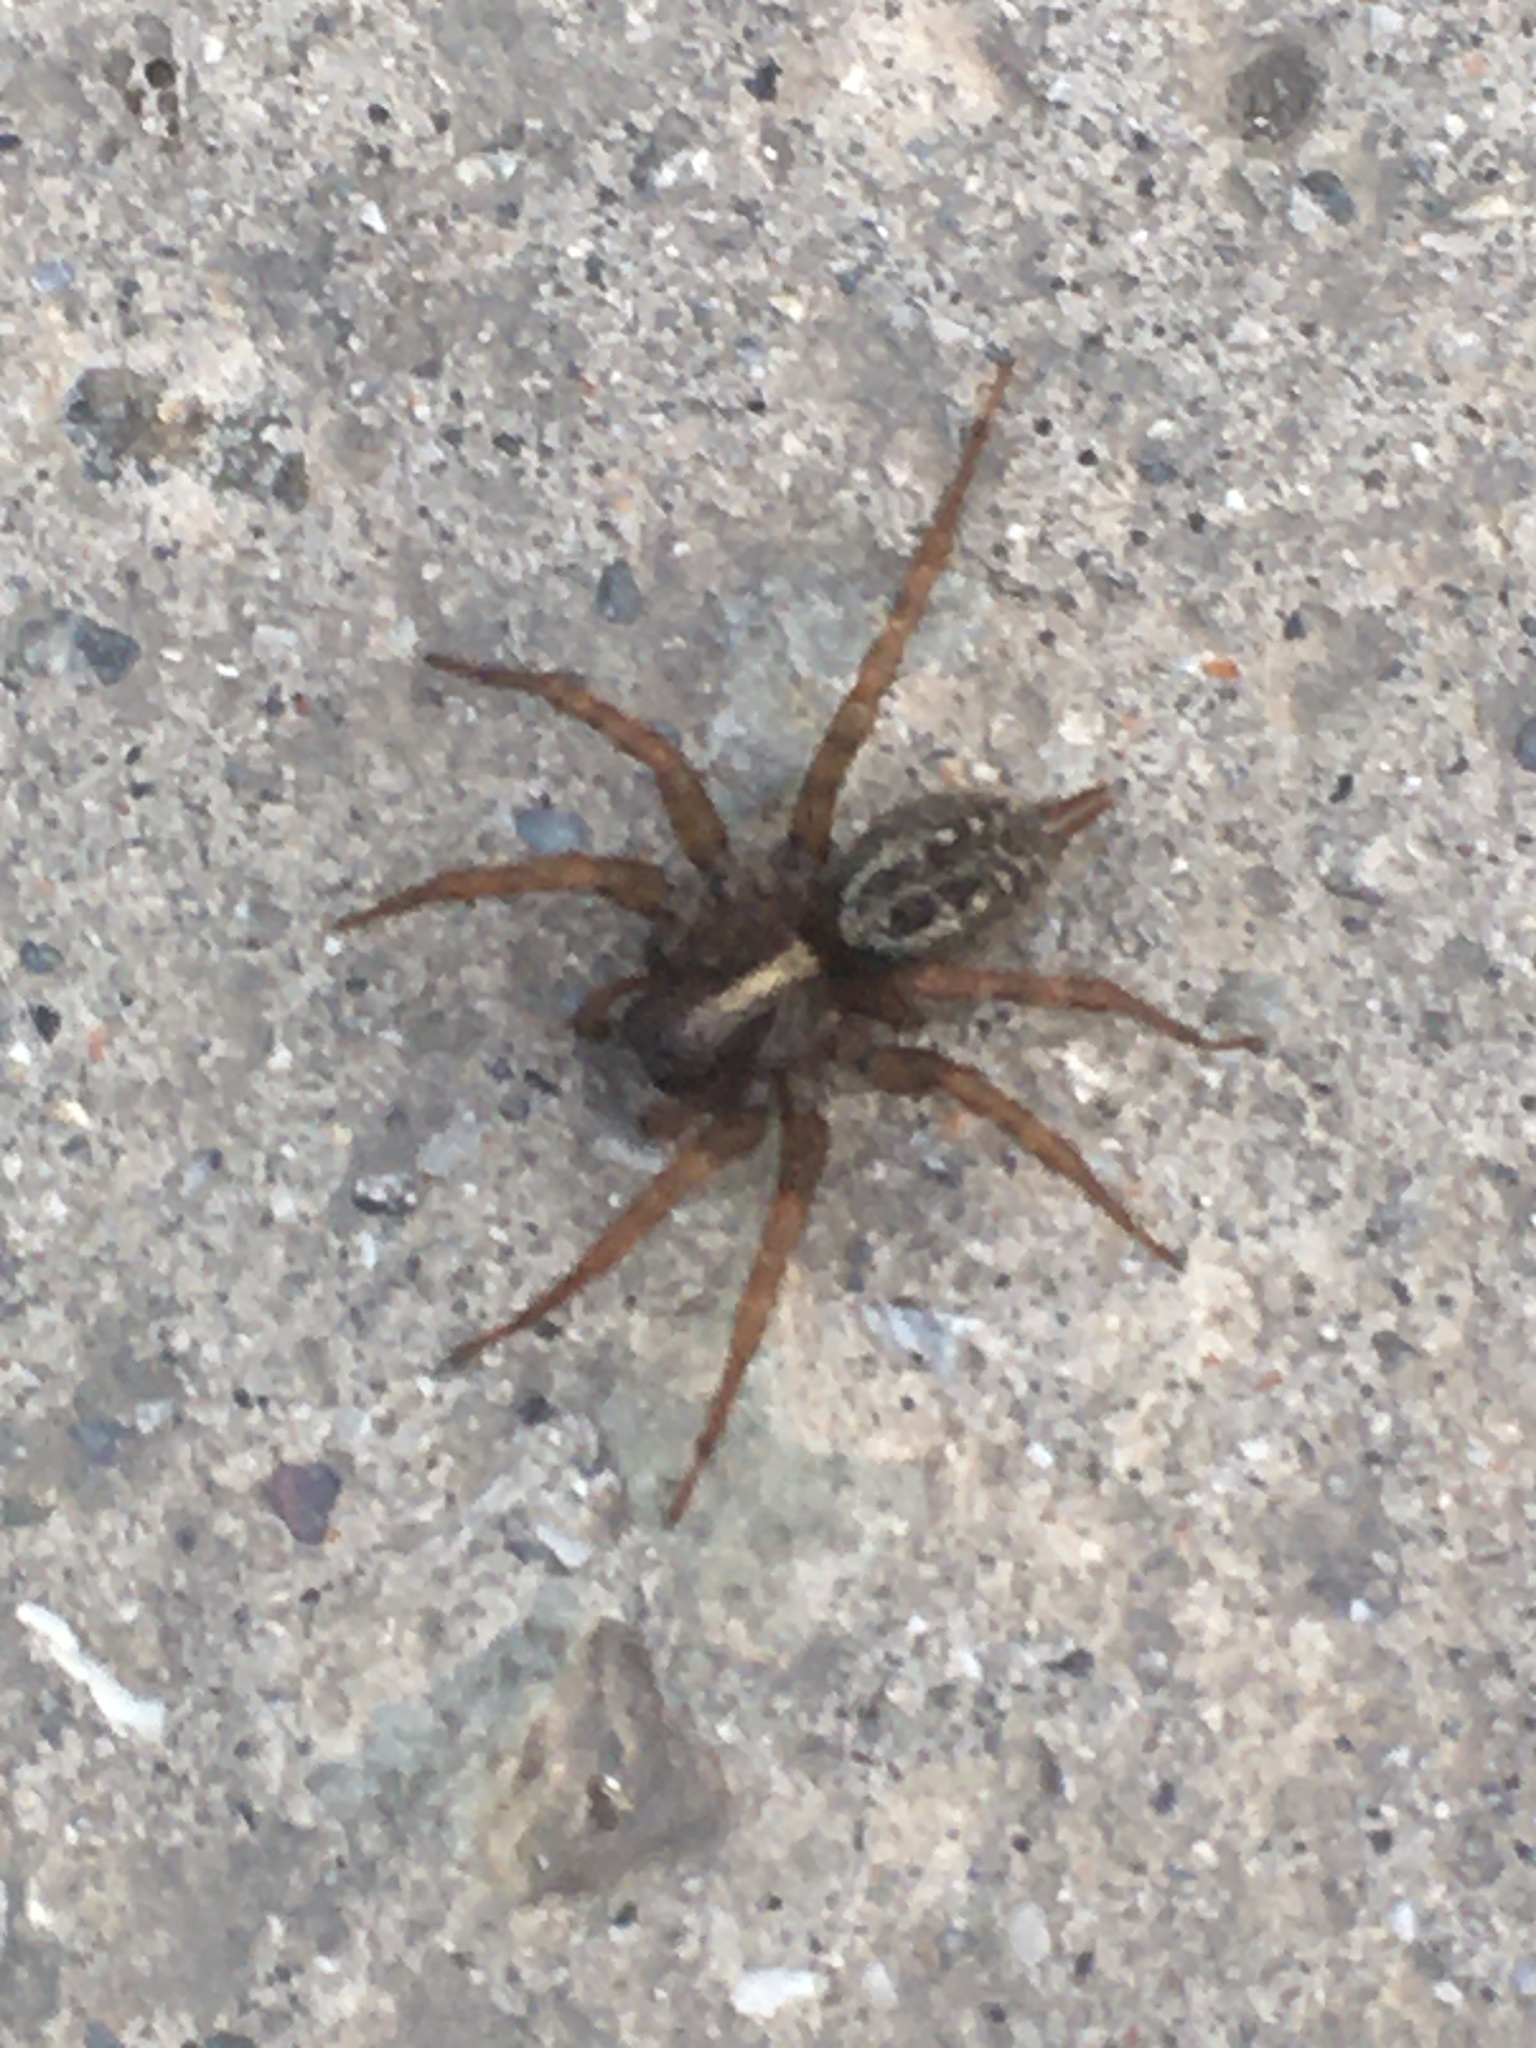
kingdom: Animalia
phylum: Arthropoda
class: Arachnida
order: Araneae
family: Agelenidae
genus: Maimuna
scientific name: Maimuna vestita
